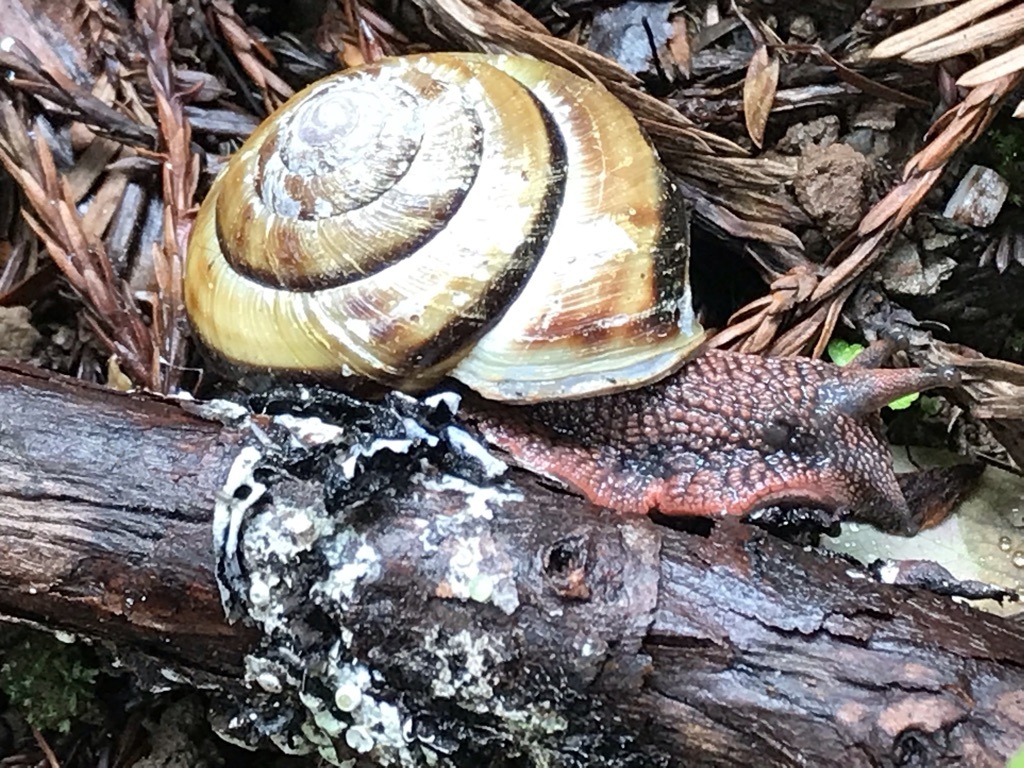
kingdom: Animalia
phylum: Mollusca
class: Gastropoda
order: Stylommatophora
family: Xanthonychidae
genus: Monadenia
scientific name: Monadenia infumata
